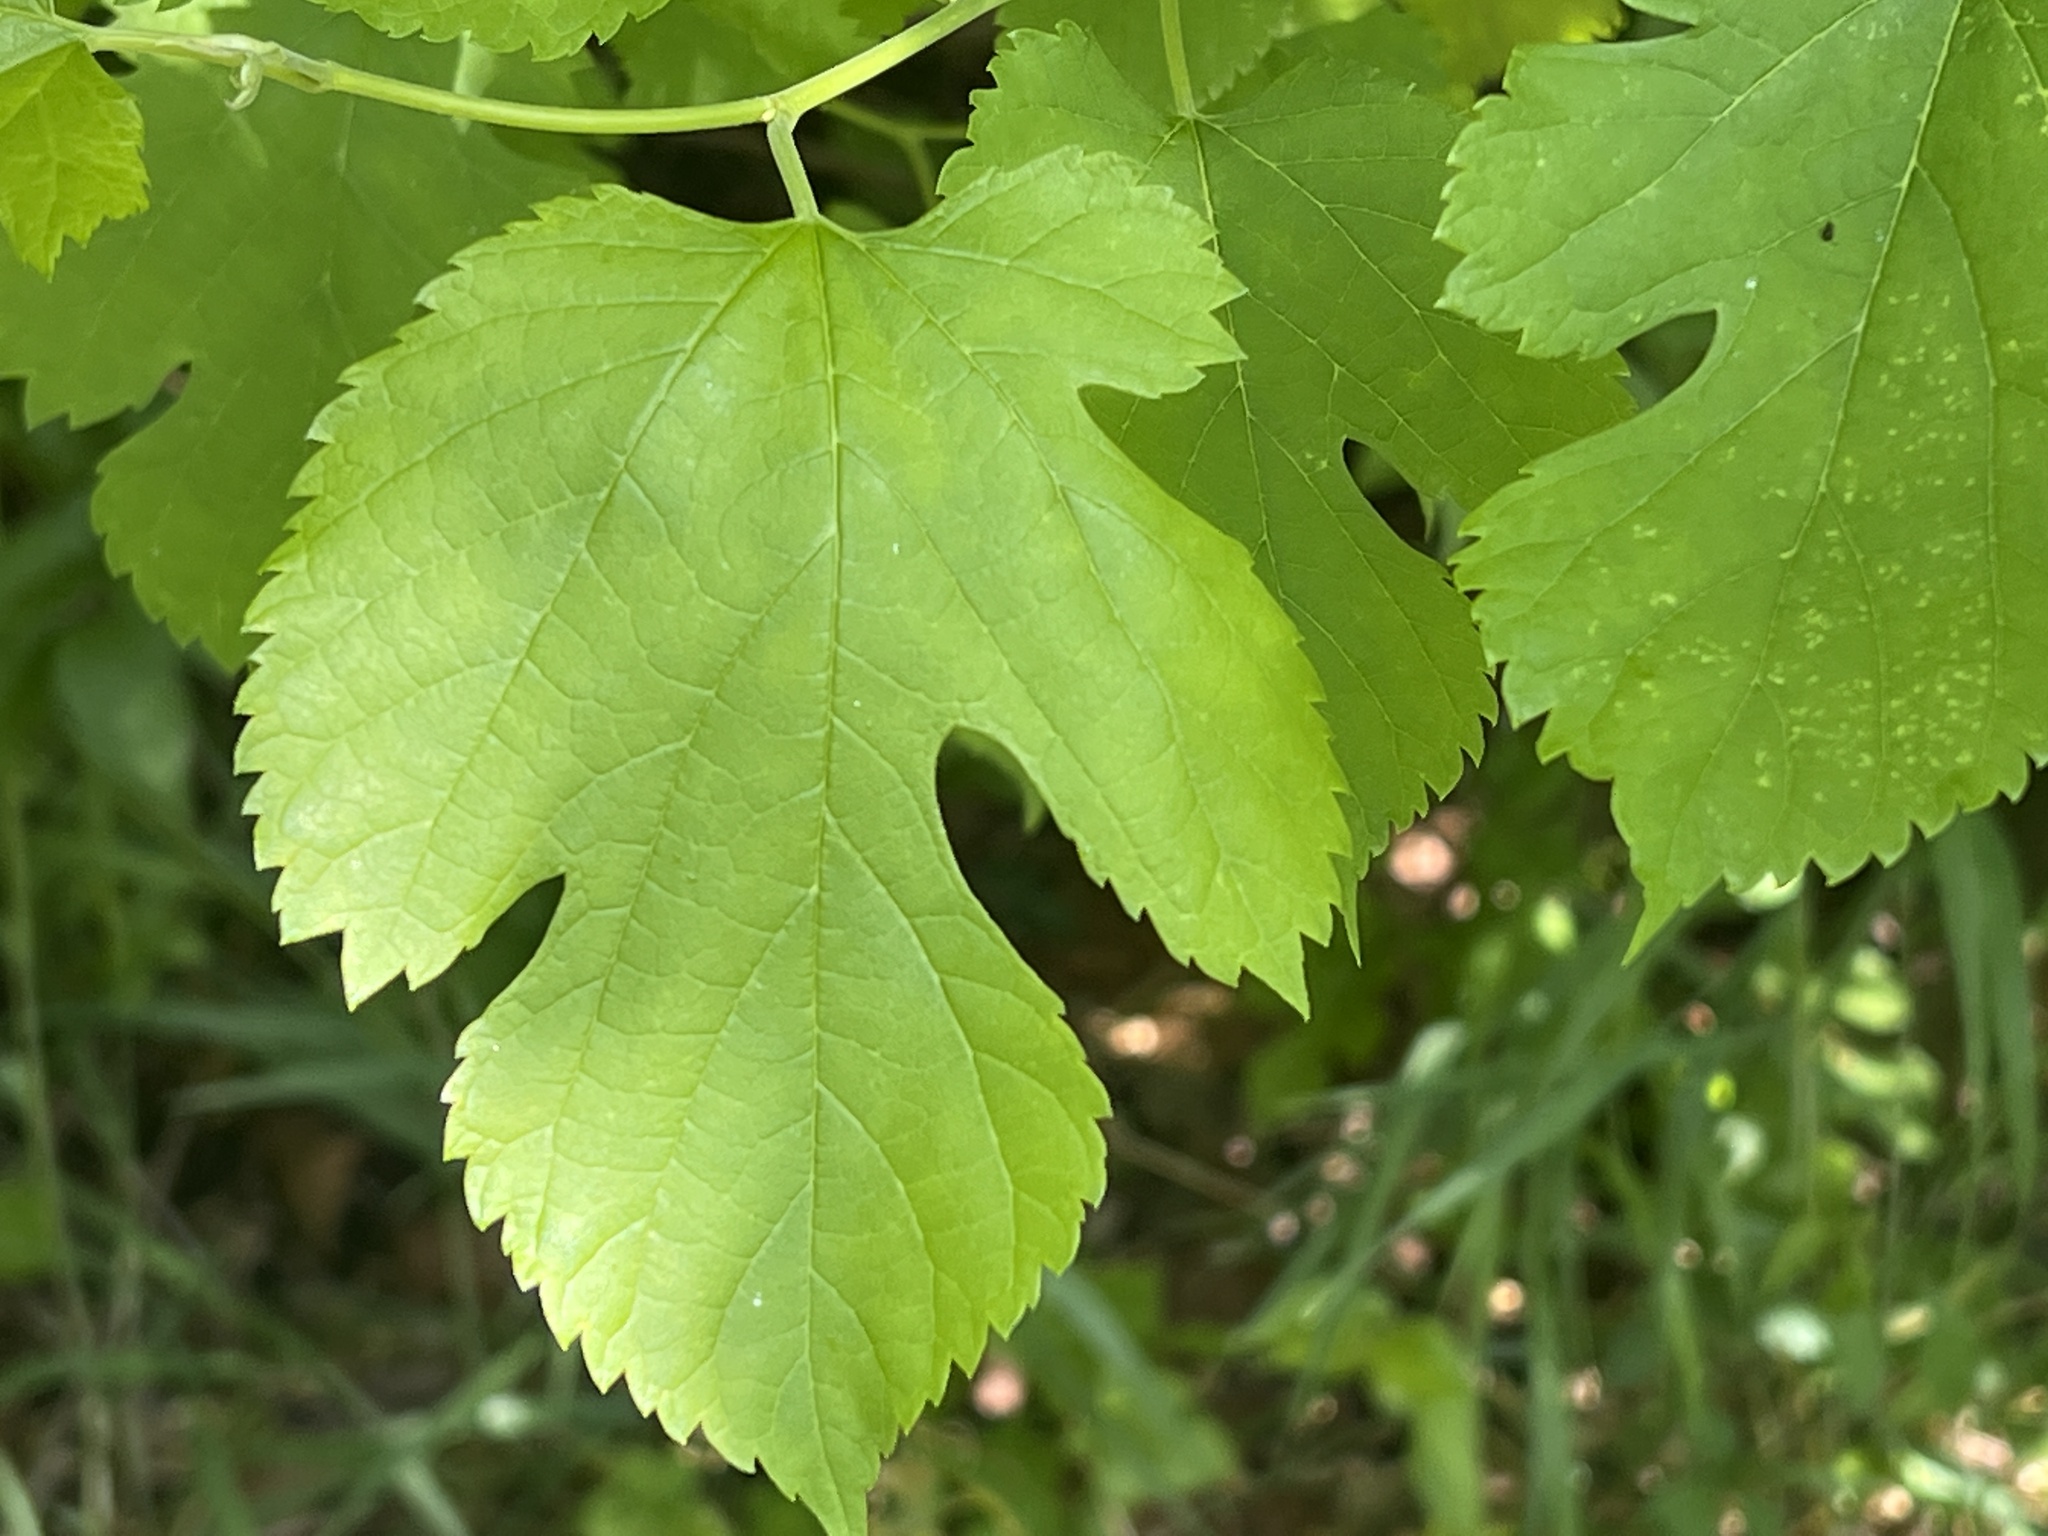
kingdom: Plantae
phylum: Tracheophyta
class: Magnoliopsida
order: Rosales
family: Moraceae
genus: Morus
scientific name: Morus alba
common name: White mulberry
